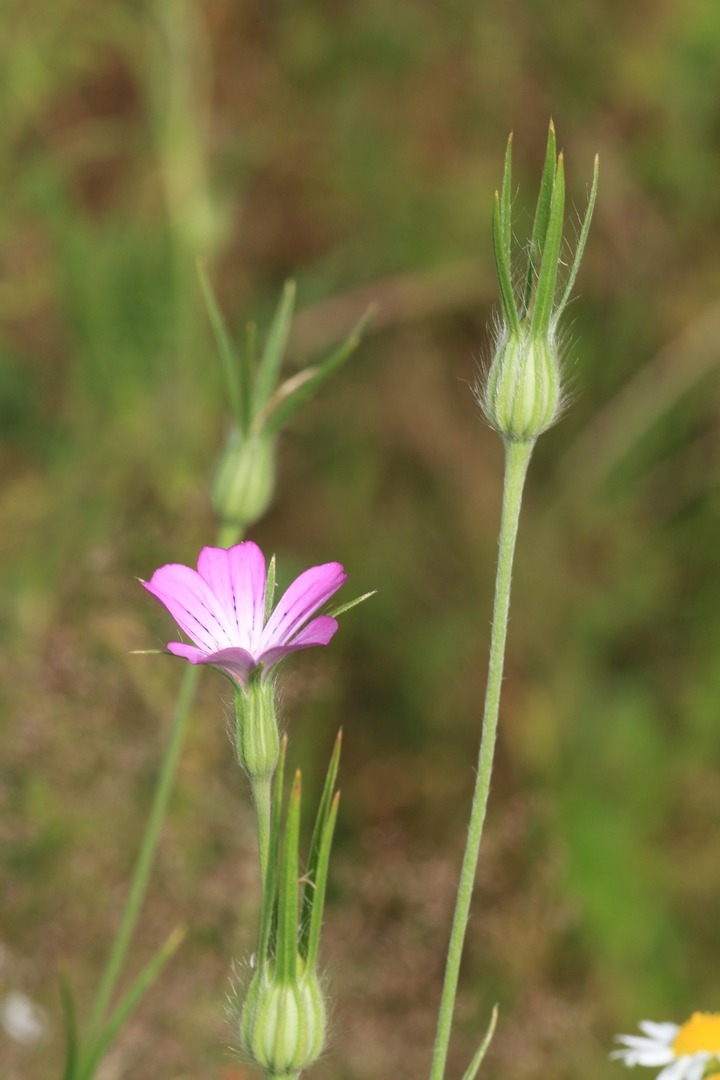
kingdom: Plantae
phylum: Tracheophyta
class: Magnoliopsida
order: Caryophyllales
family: Caryophyllaceae
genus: Agrostemma
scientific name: Agrostemma githago
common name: Common corncockle
